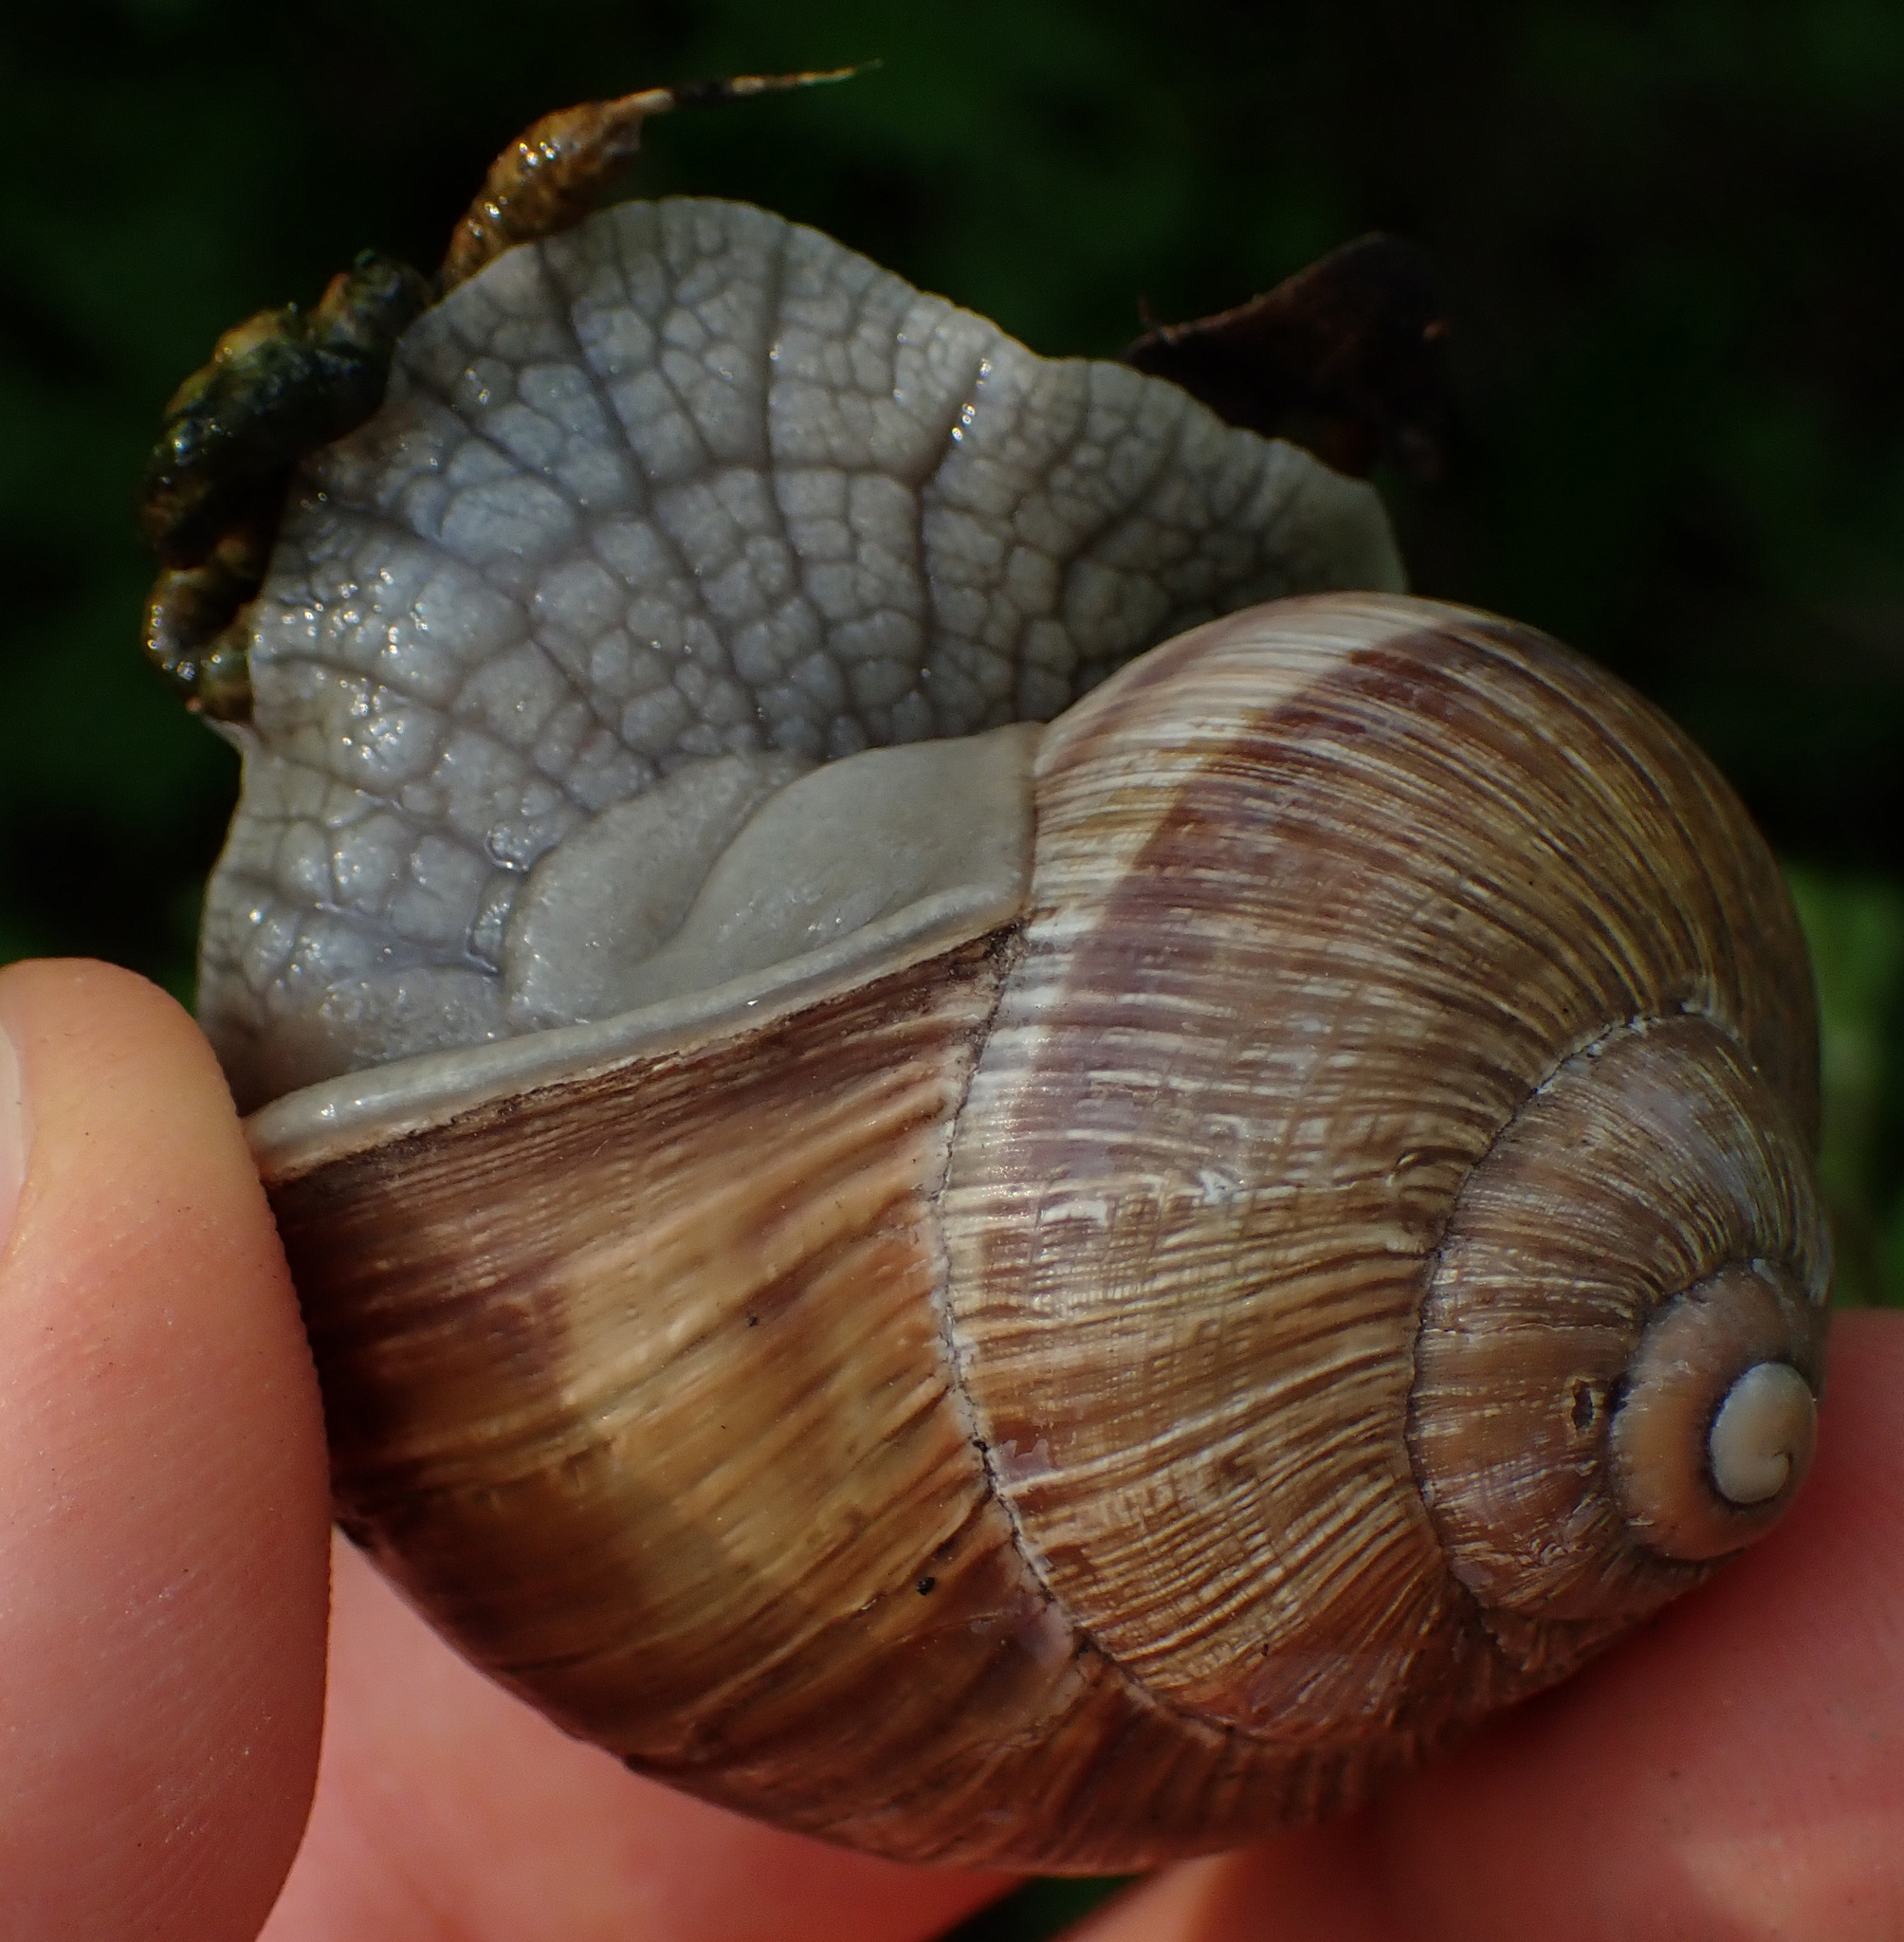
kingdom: Animalia
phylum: Mollusca
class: Gastropoda
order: Stylommatophora
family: Helicidae
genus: Helix
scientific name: Helix pomatia
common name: Roman snail
